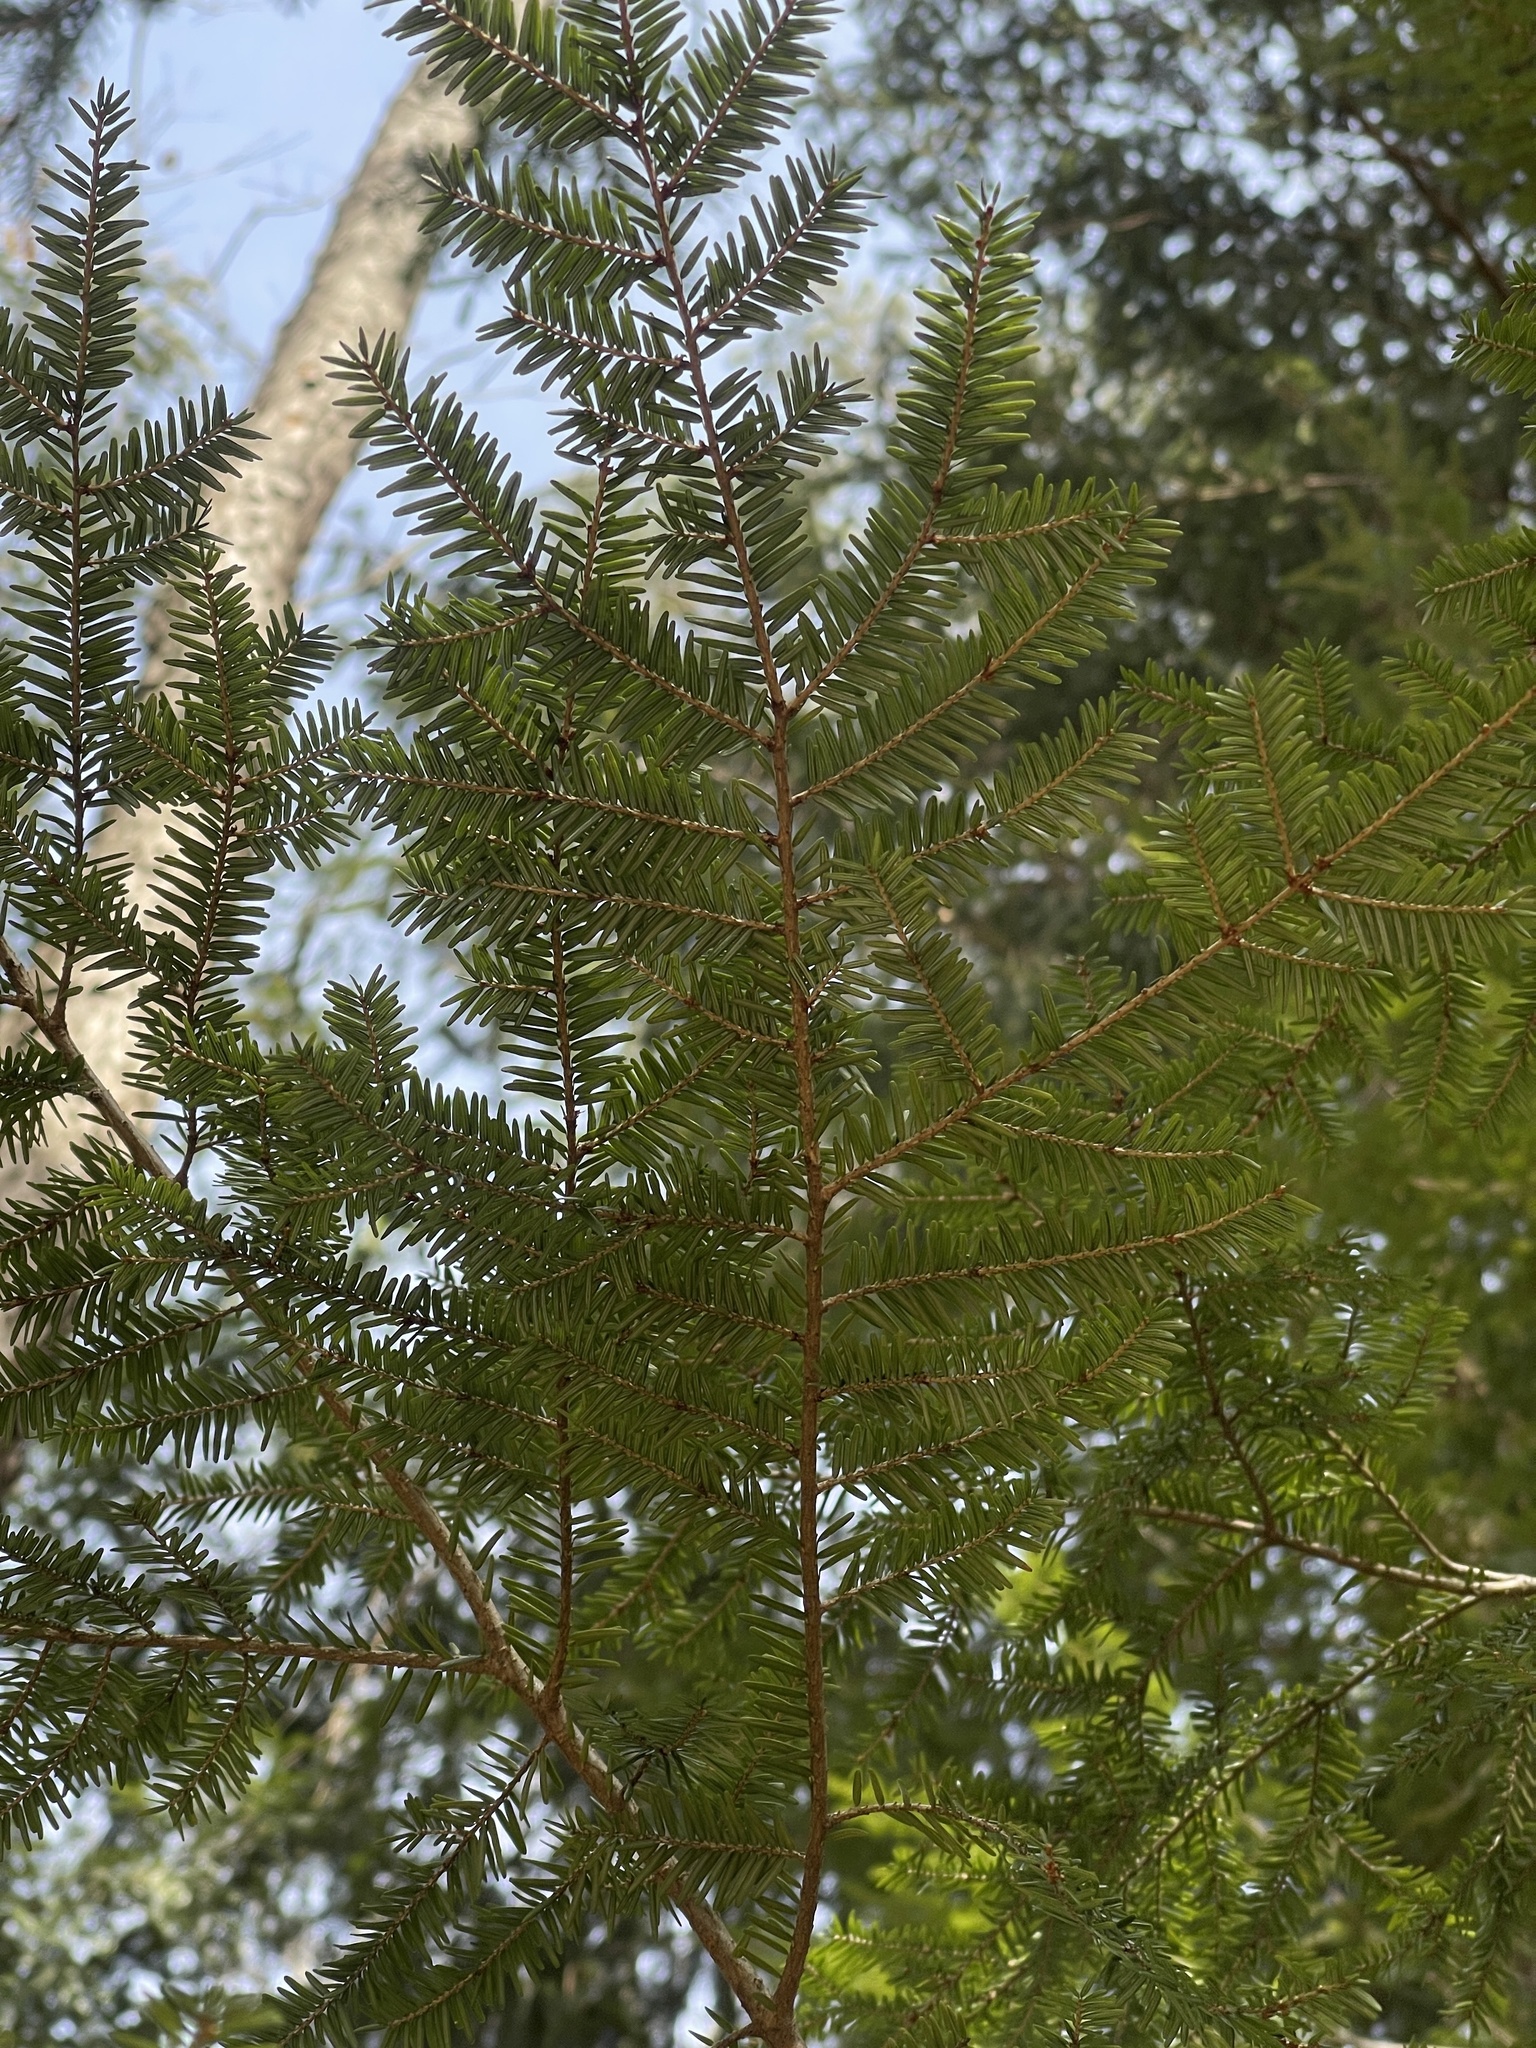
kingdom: Plantae
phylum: Tracheophyta
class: Pinopsida
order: Pinales
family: Pinaceae
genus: Tsuga
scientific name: Tsuga canadensis
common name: Eastern hemlock
